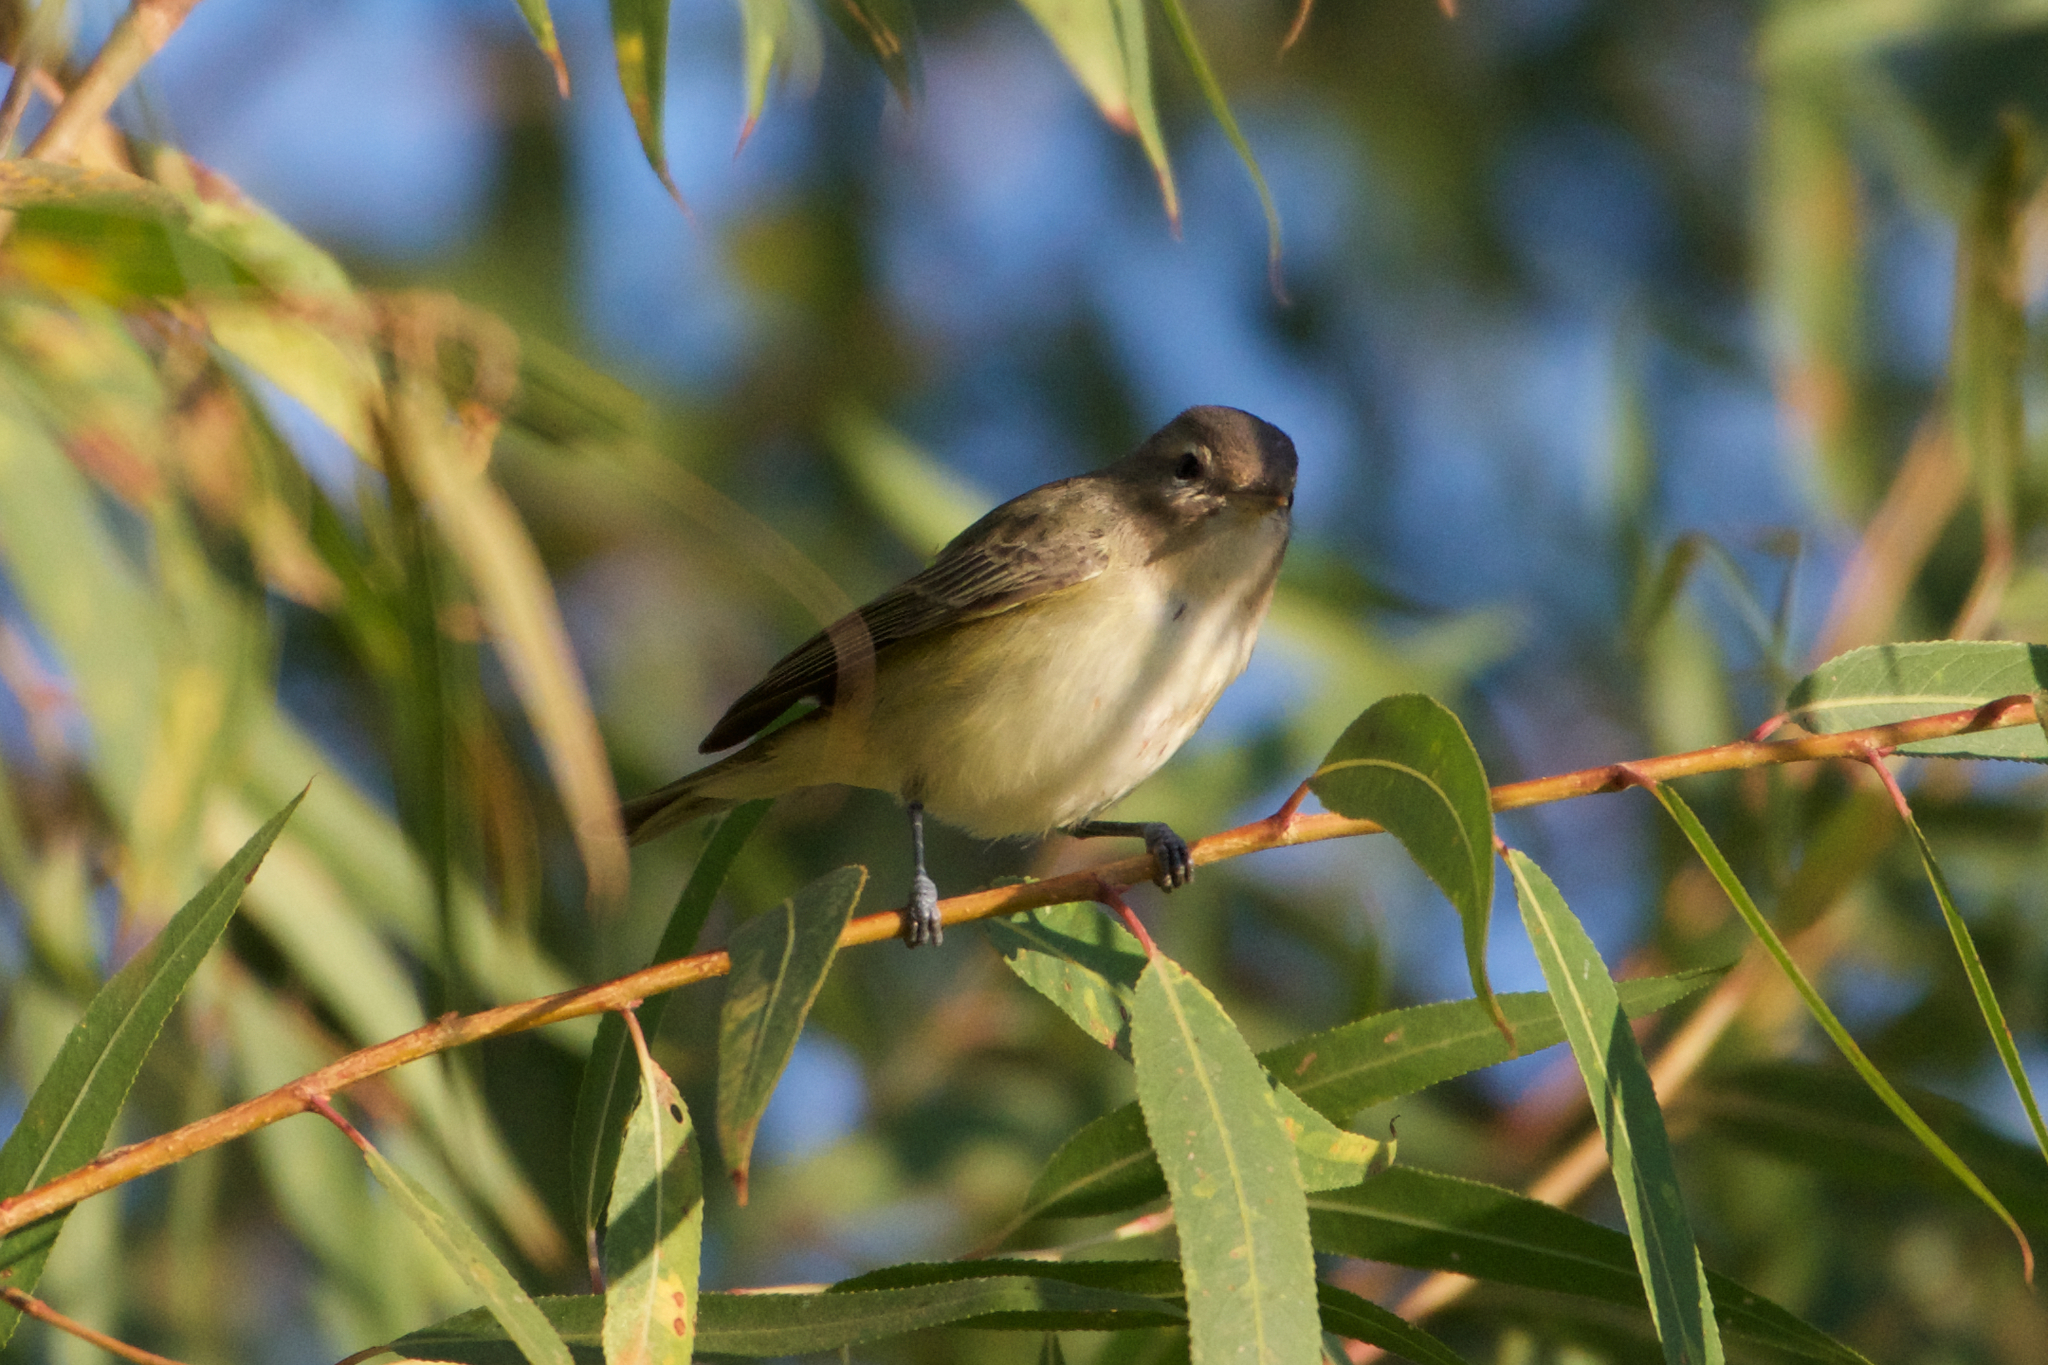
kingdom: Animalia
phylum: Chordata
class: Aves
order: Passeriformes
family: Vireonidae
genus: Vireo
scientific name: Vireo gilvus
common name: Warbling vireo
